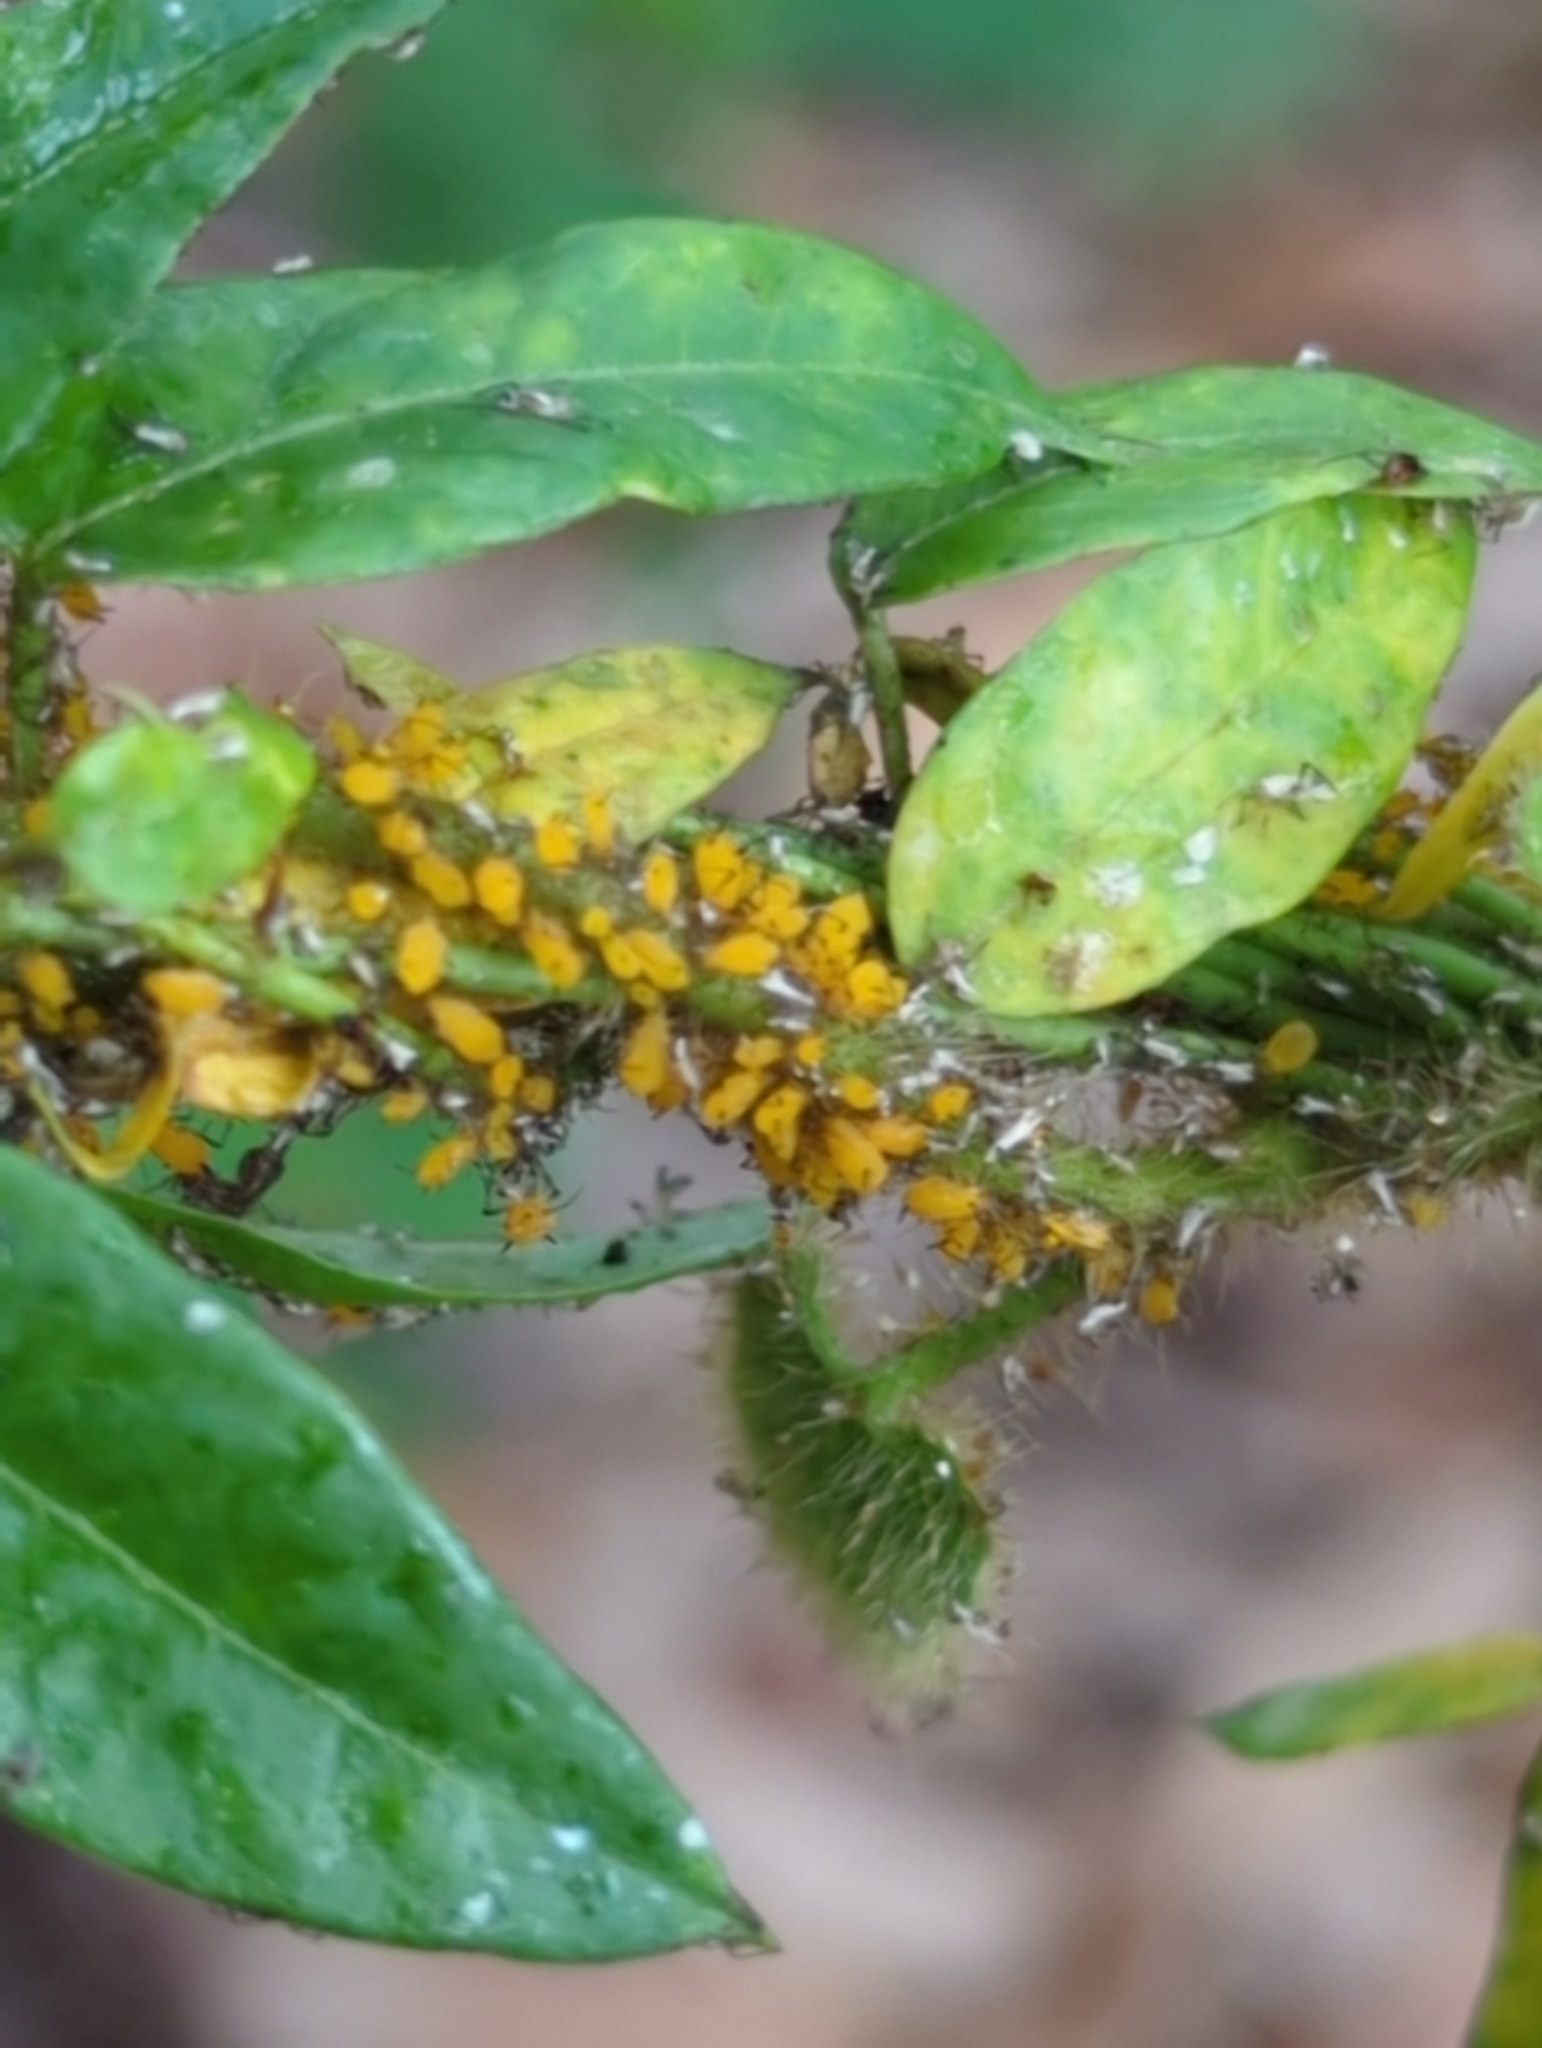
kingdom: Animalia
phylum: Arthropoda
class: Insecta
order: Hemiptera
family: Aphididae
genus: Aphis
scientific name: Aphis nerii
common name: Oleander aphid
